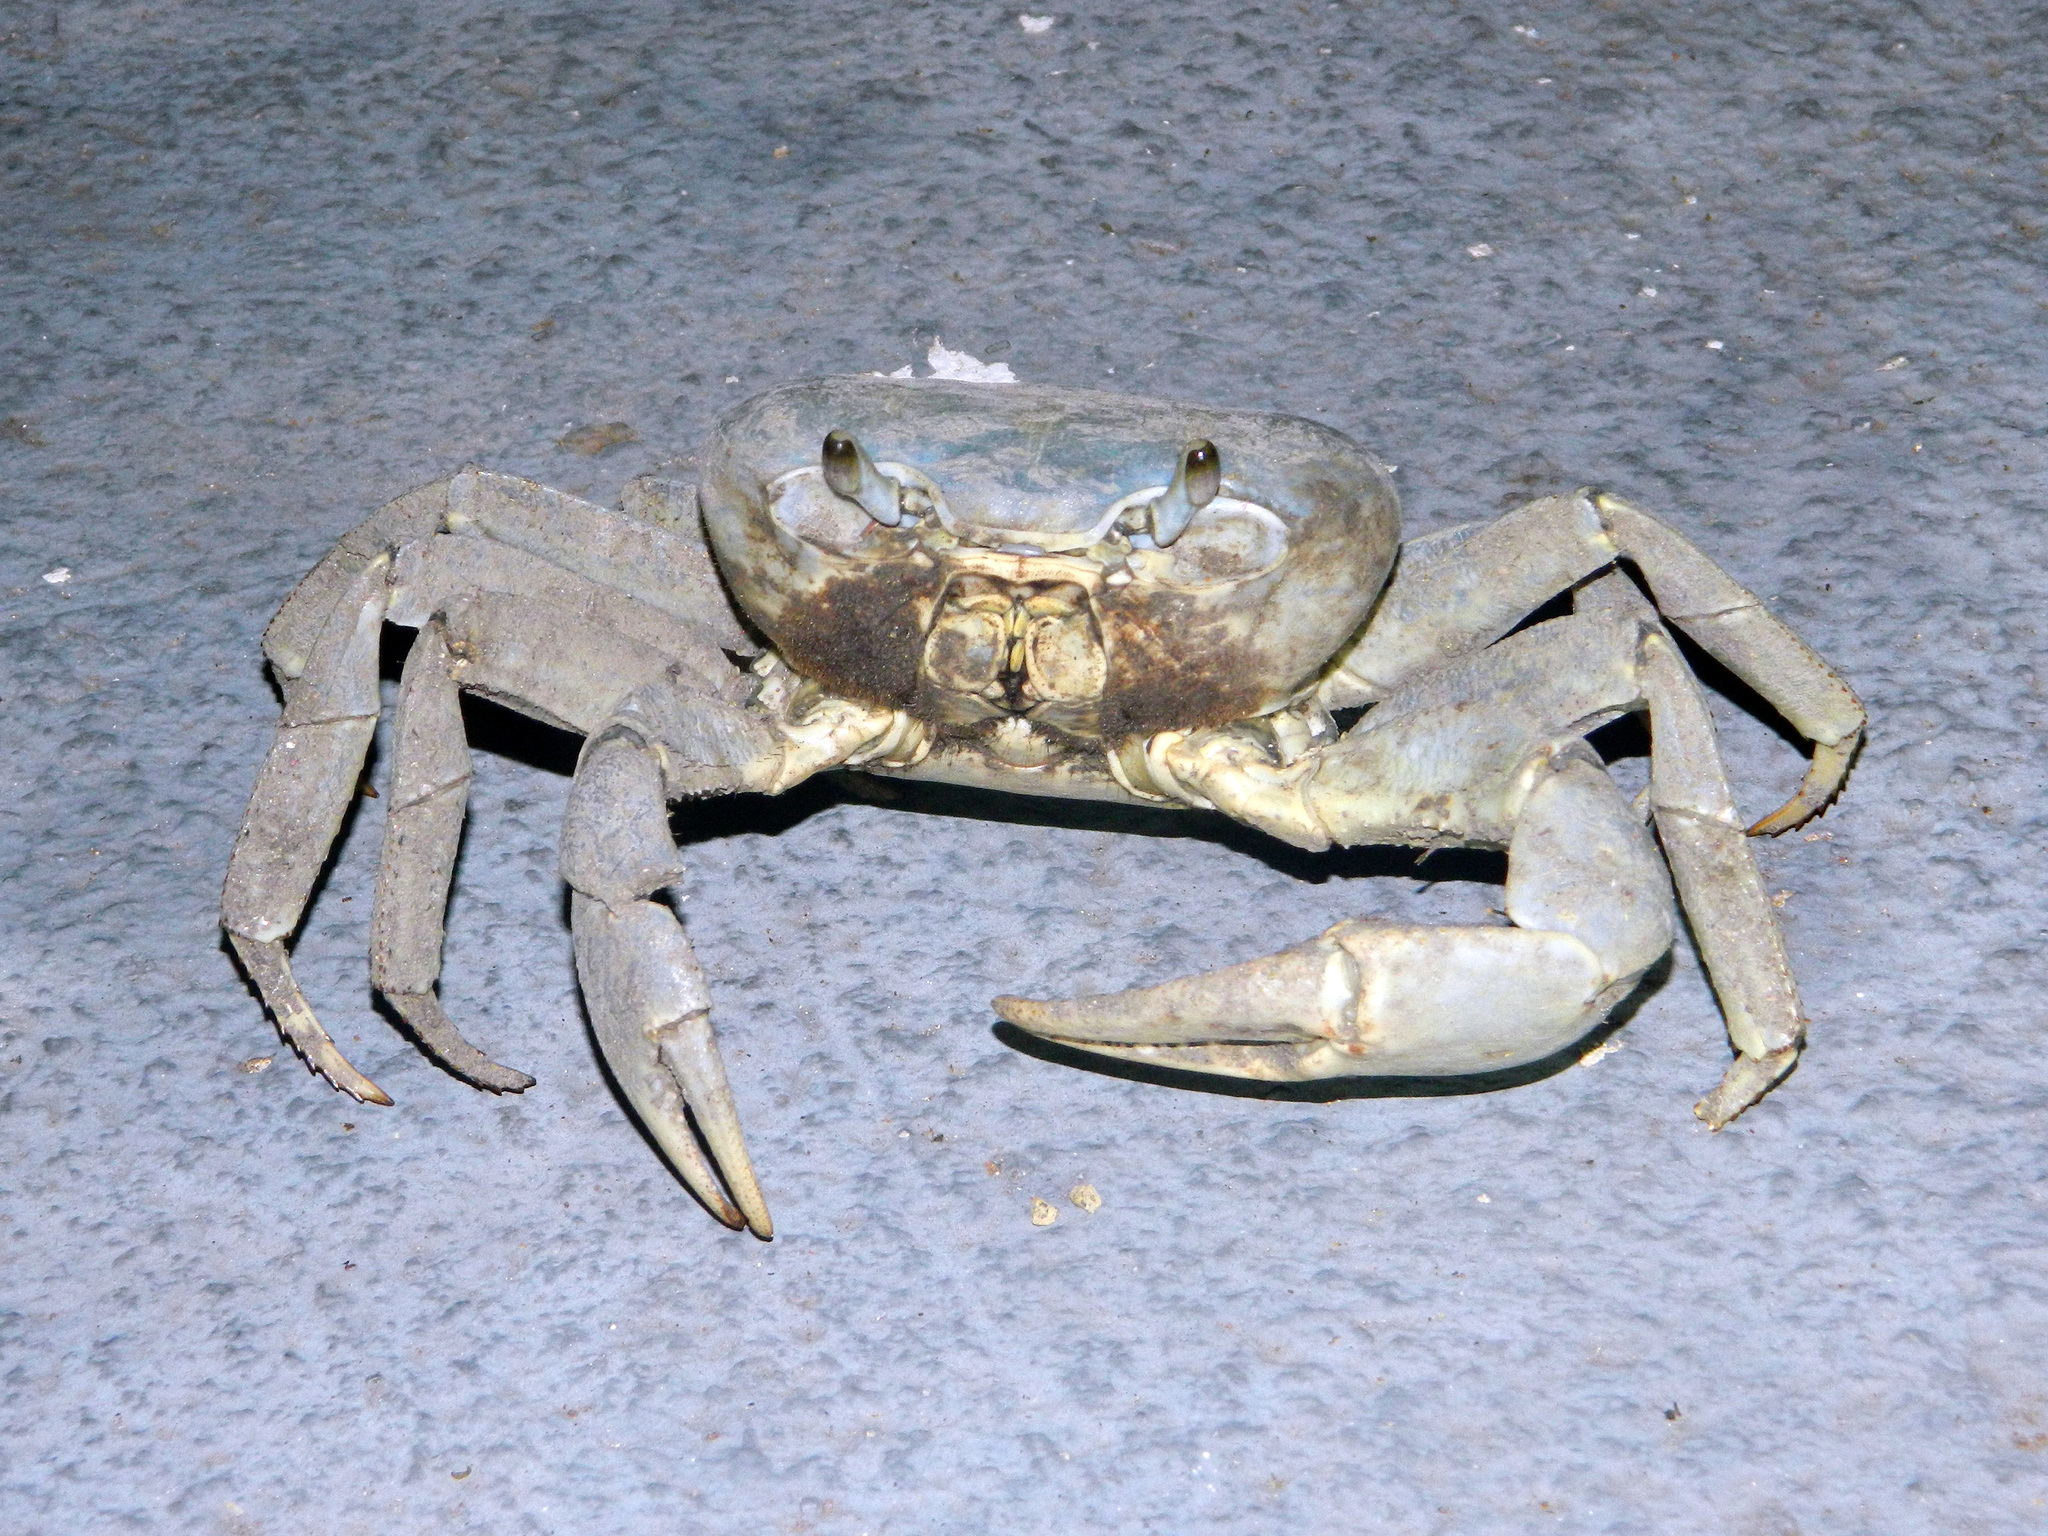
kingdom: Animalia
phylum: Arthropoda
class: Malacostraca
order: Decapoda
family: Gecarcinidae
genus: Cardisoma
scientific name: Cardisoma guanhumi
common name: Great land crab
